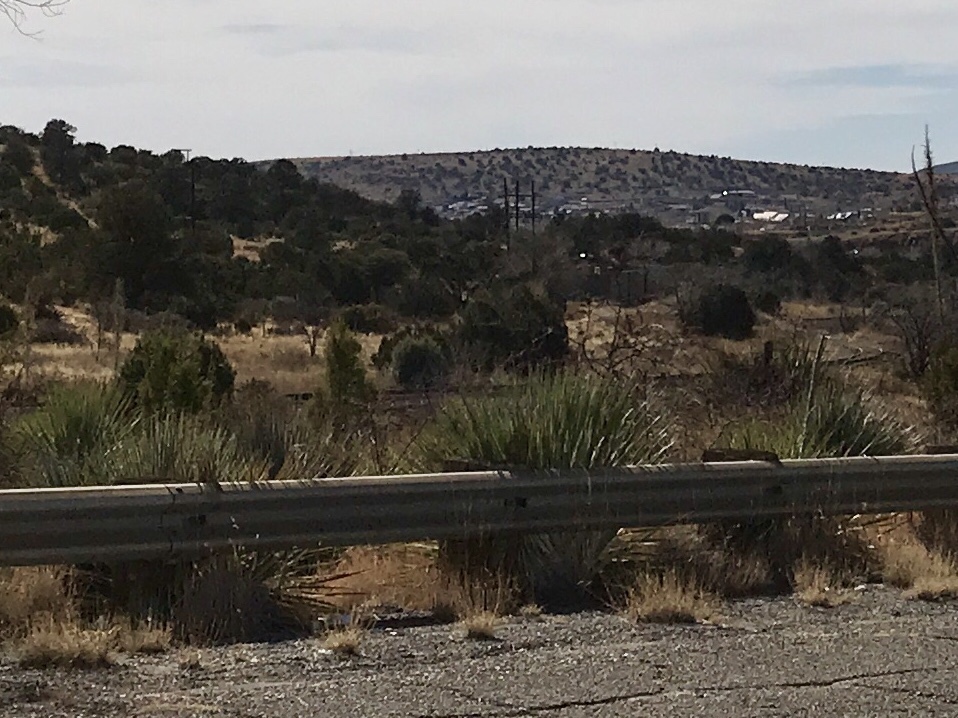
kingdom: Plantae
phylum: Tracheophyta
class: Liliopsida
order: Asparagales
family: Asparagaceae
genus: Yucca
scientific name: Yucca elata
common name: Palmella
